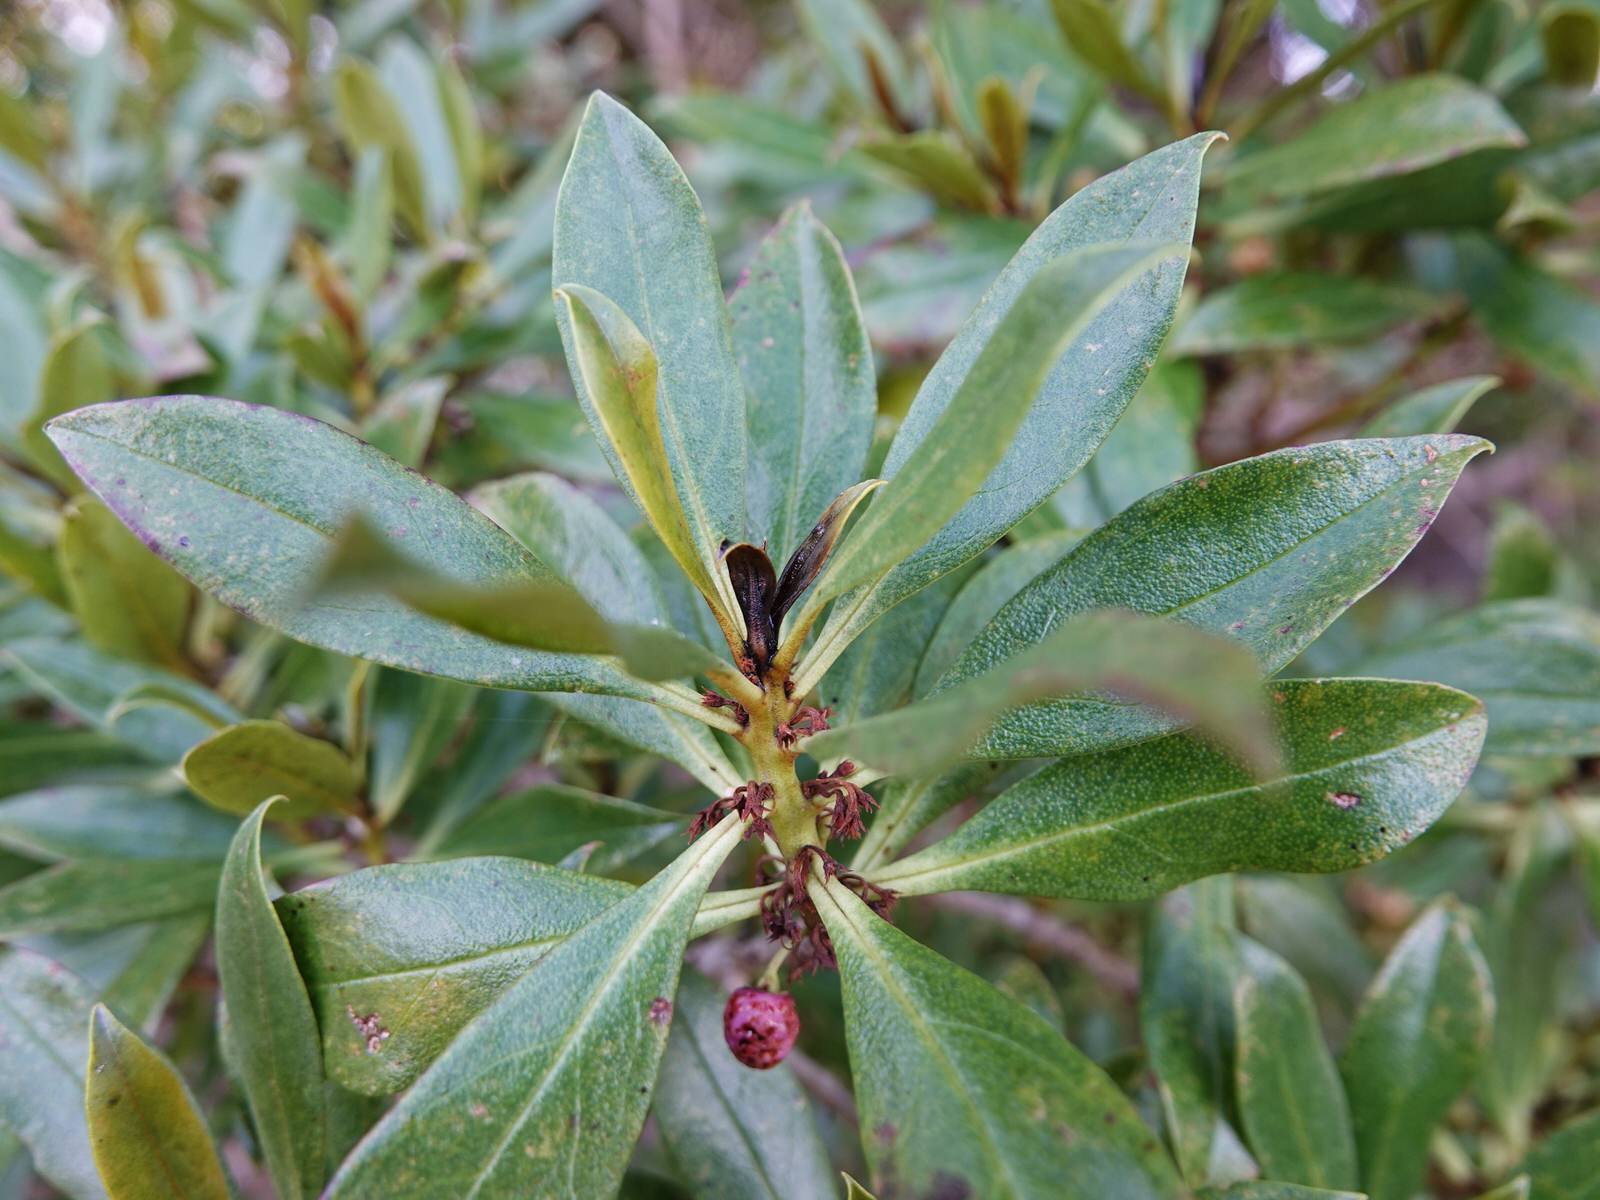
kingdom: Plantae
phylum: Tracheophyta
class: Magnoliopsida
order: Lamiales
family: Scrophulariaceae
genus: Myoporum
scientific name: Myoporum laetum
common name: Ngaio tree
